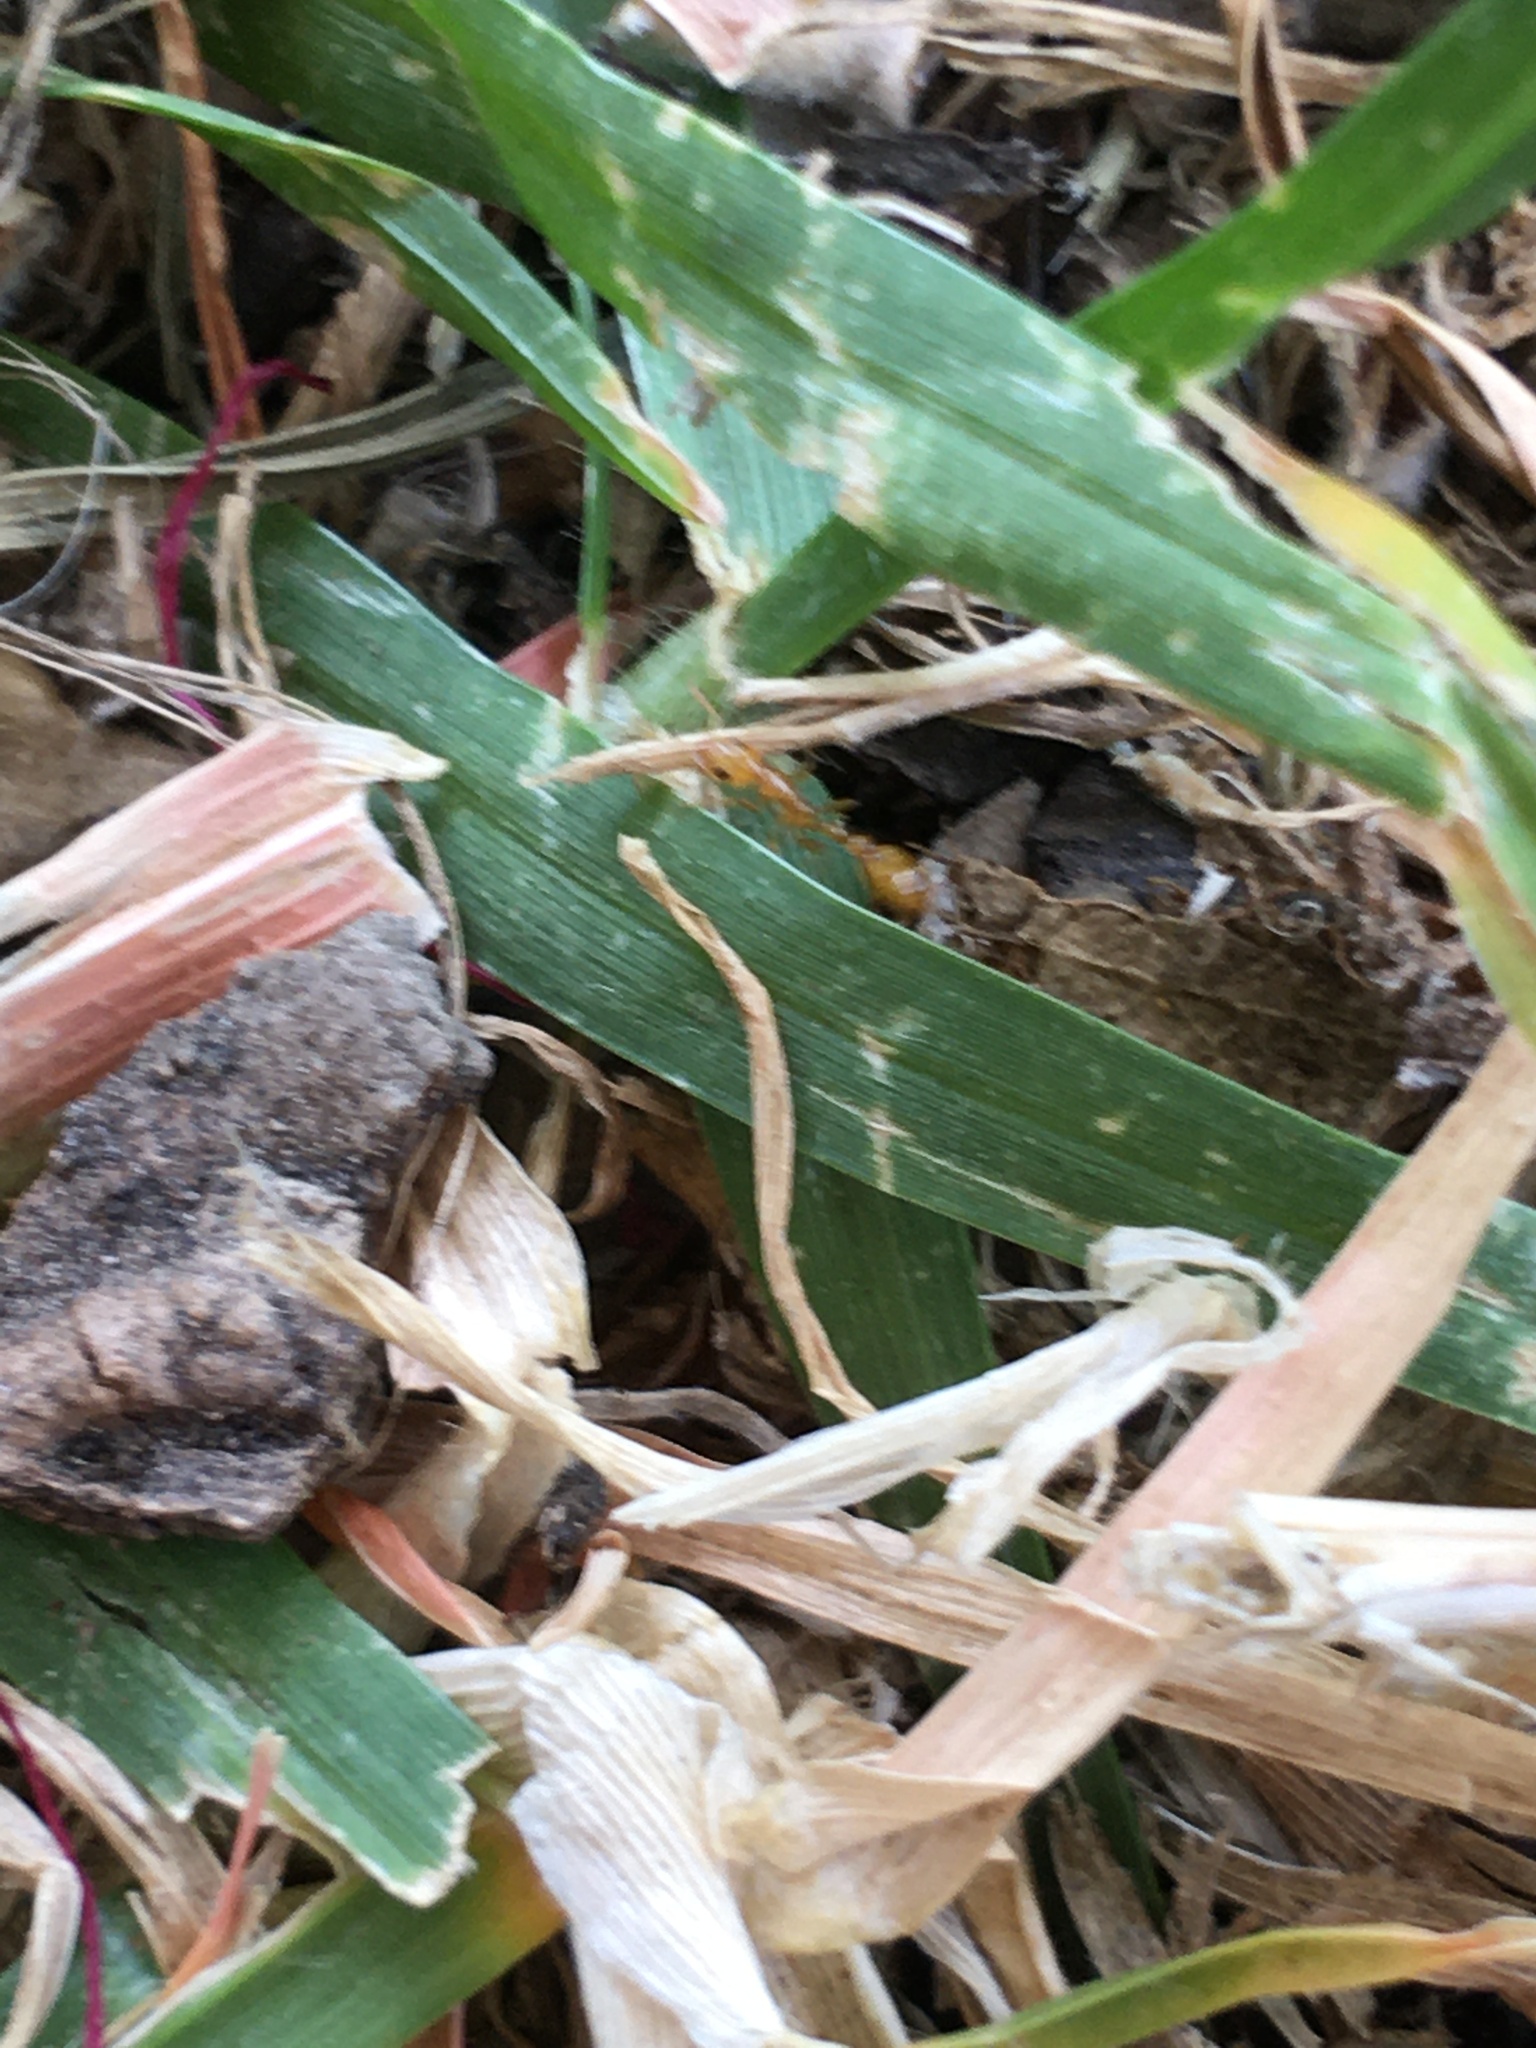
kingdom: Animalia
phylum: Arthropoda
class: Insecta
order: Hymenoptera
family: Formicidae
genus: Tetraponera
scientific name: Tetraponera emeryi
